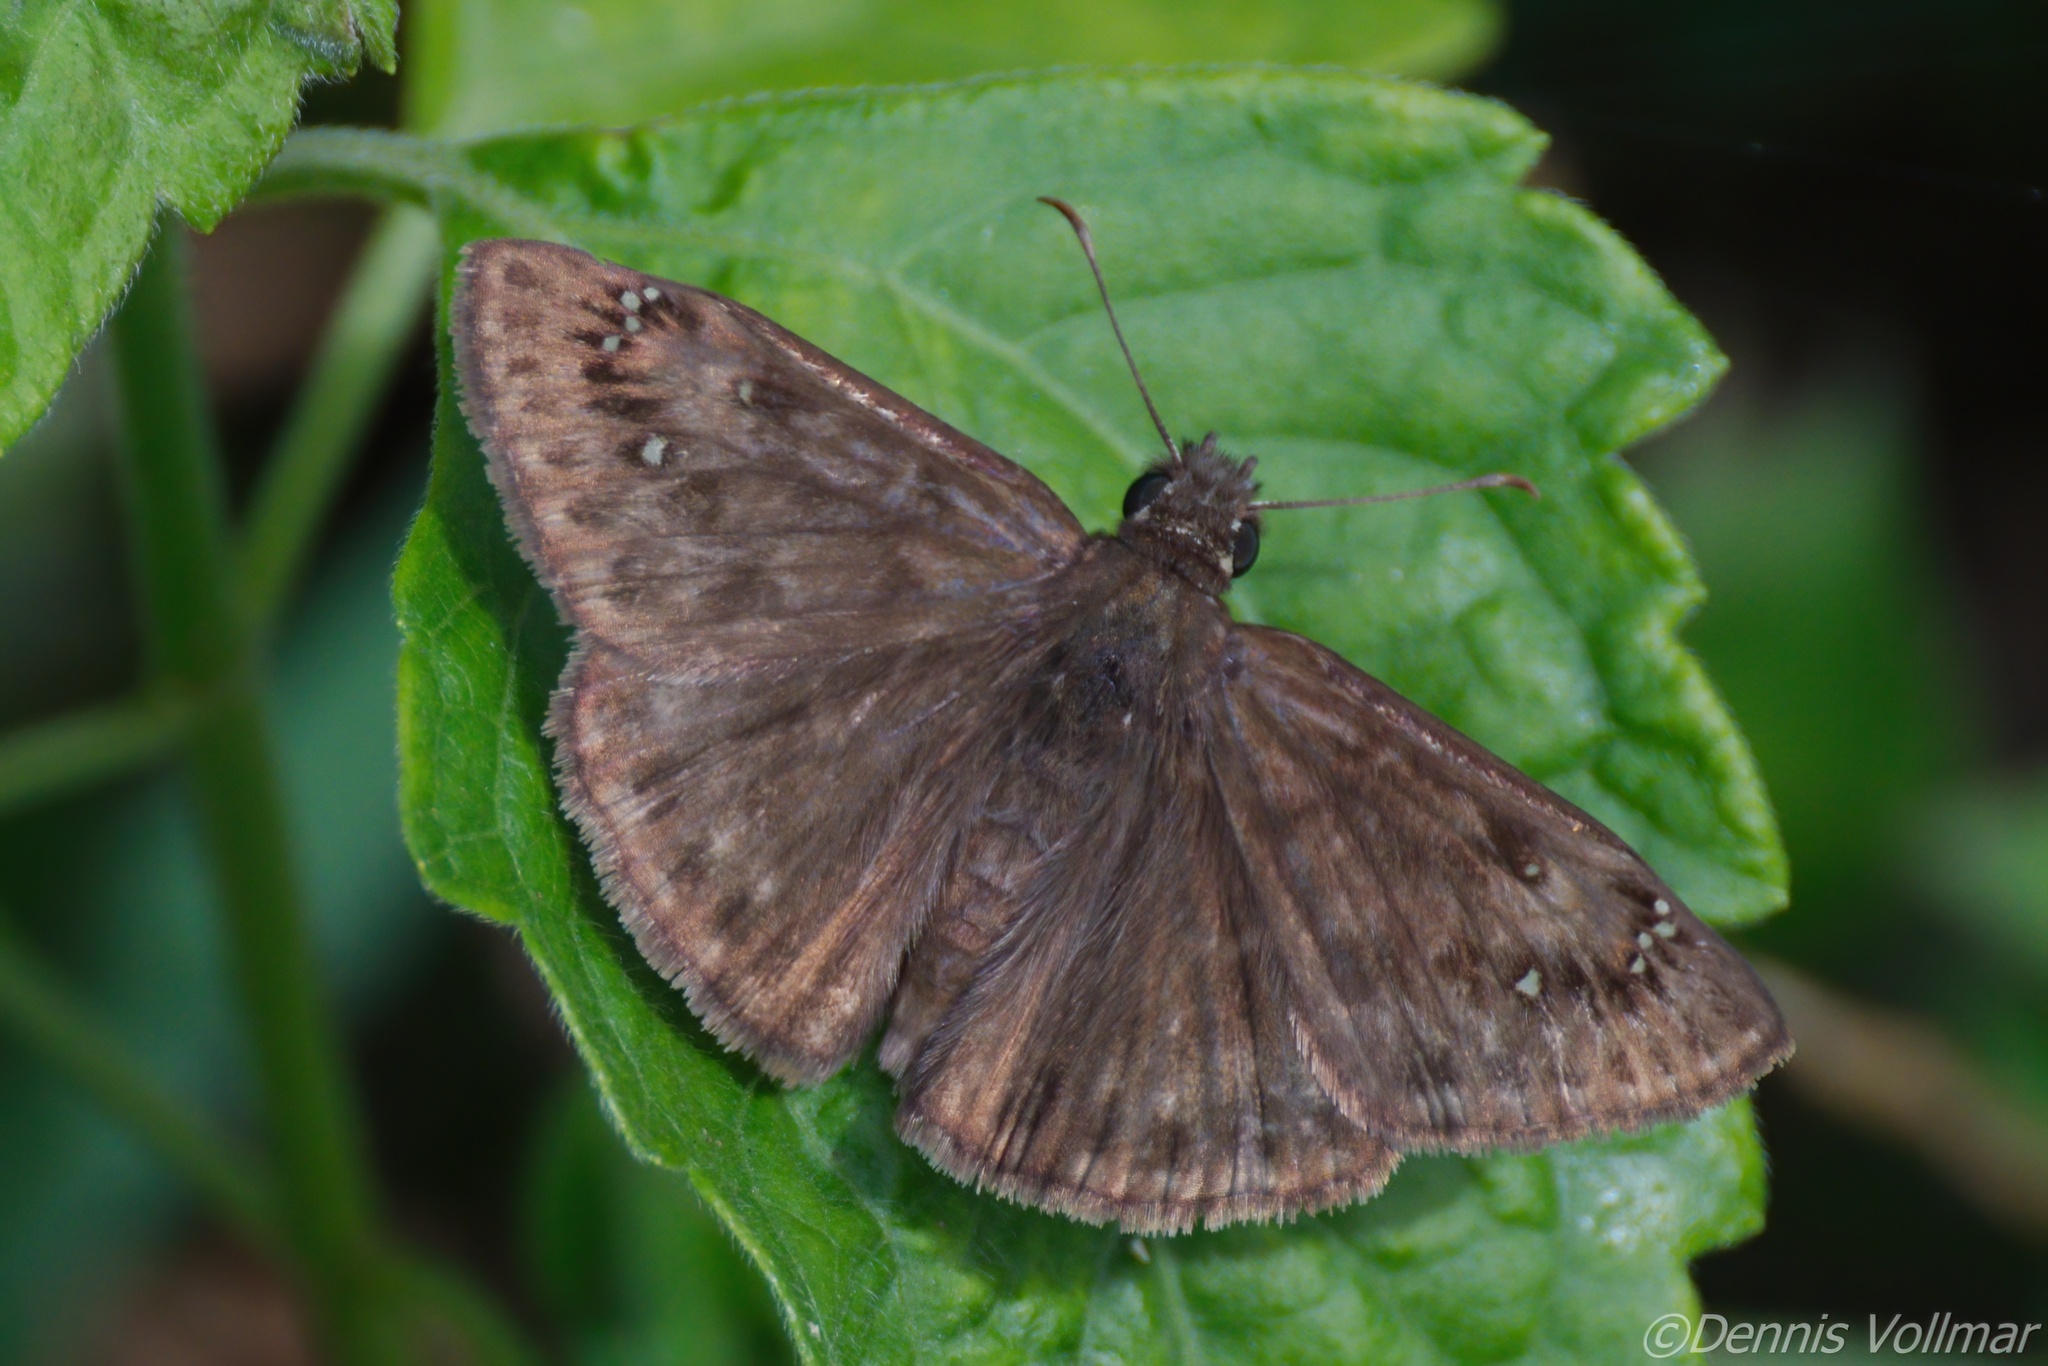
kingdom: Animalia
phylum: Arthropoda
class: Insecta
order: Lepidoptera
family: Hesperiidae
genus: Erynnis
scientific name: Erynnis horatius
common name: Horace's duskywing
